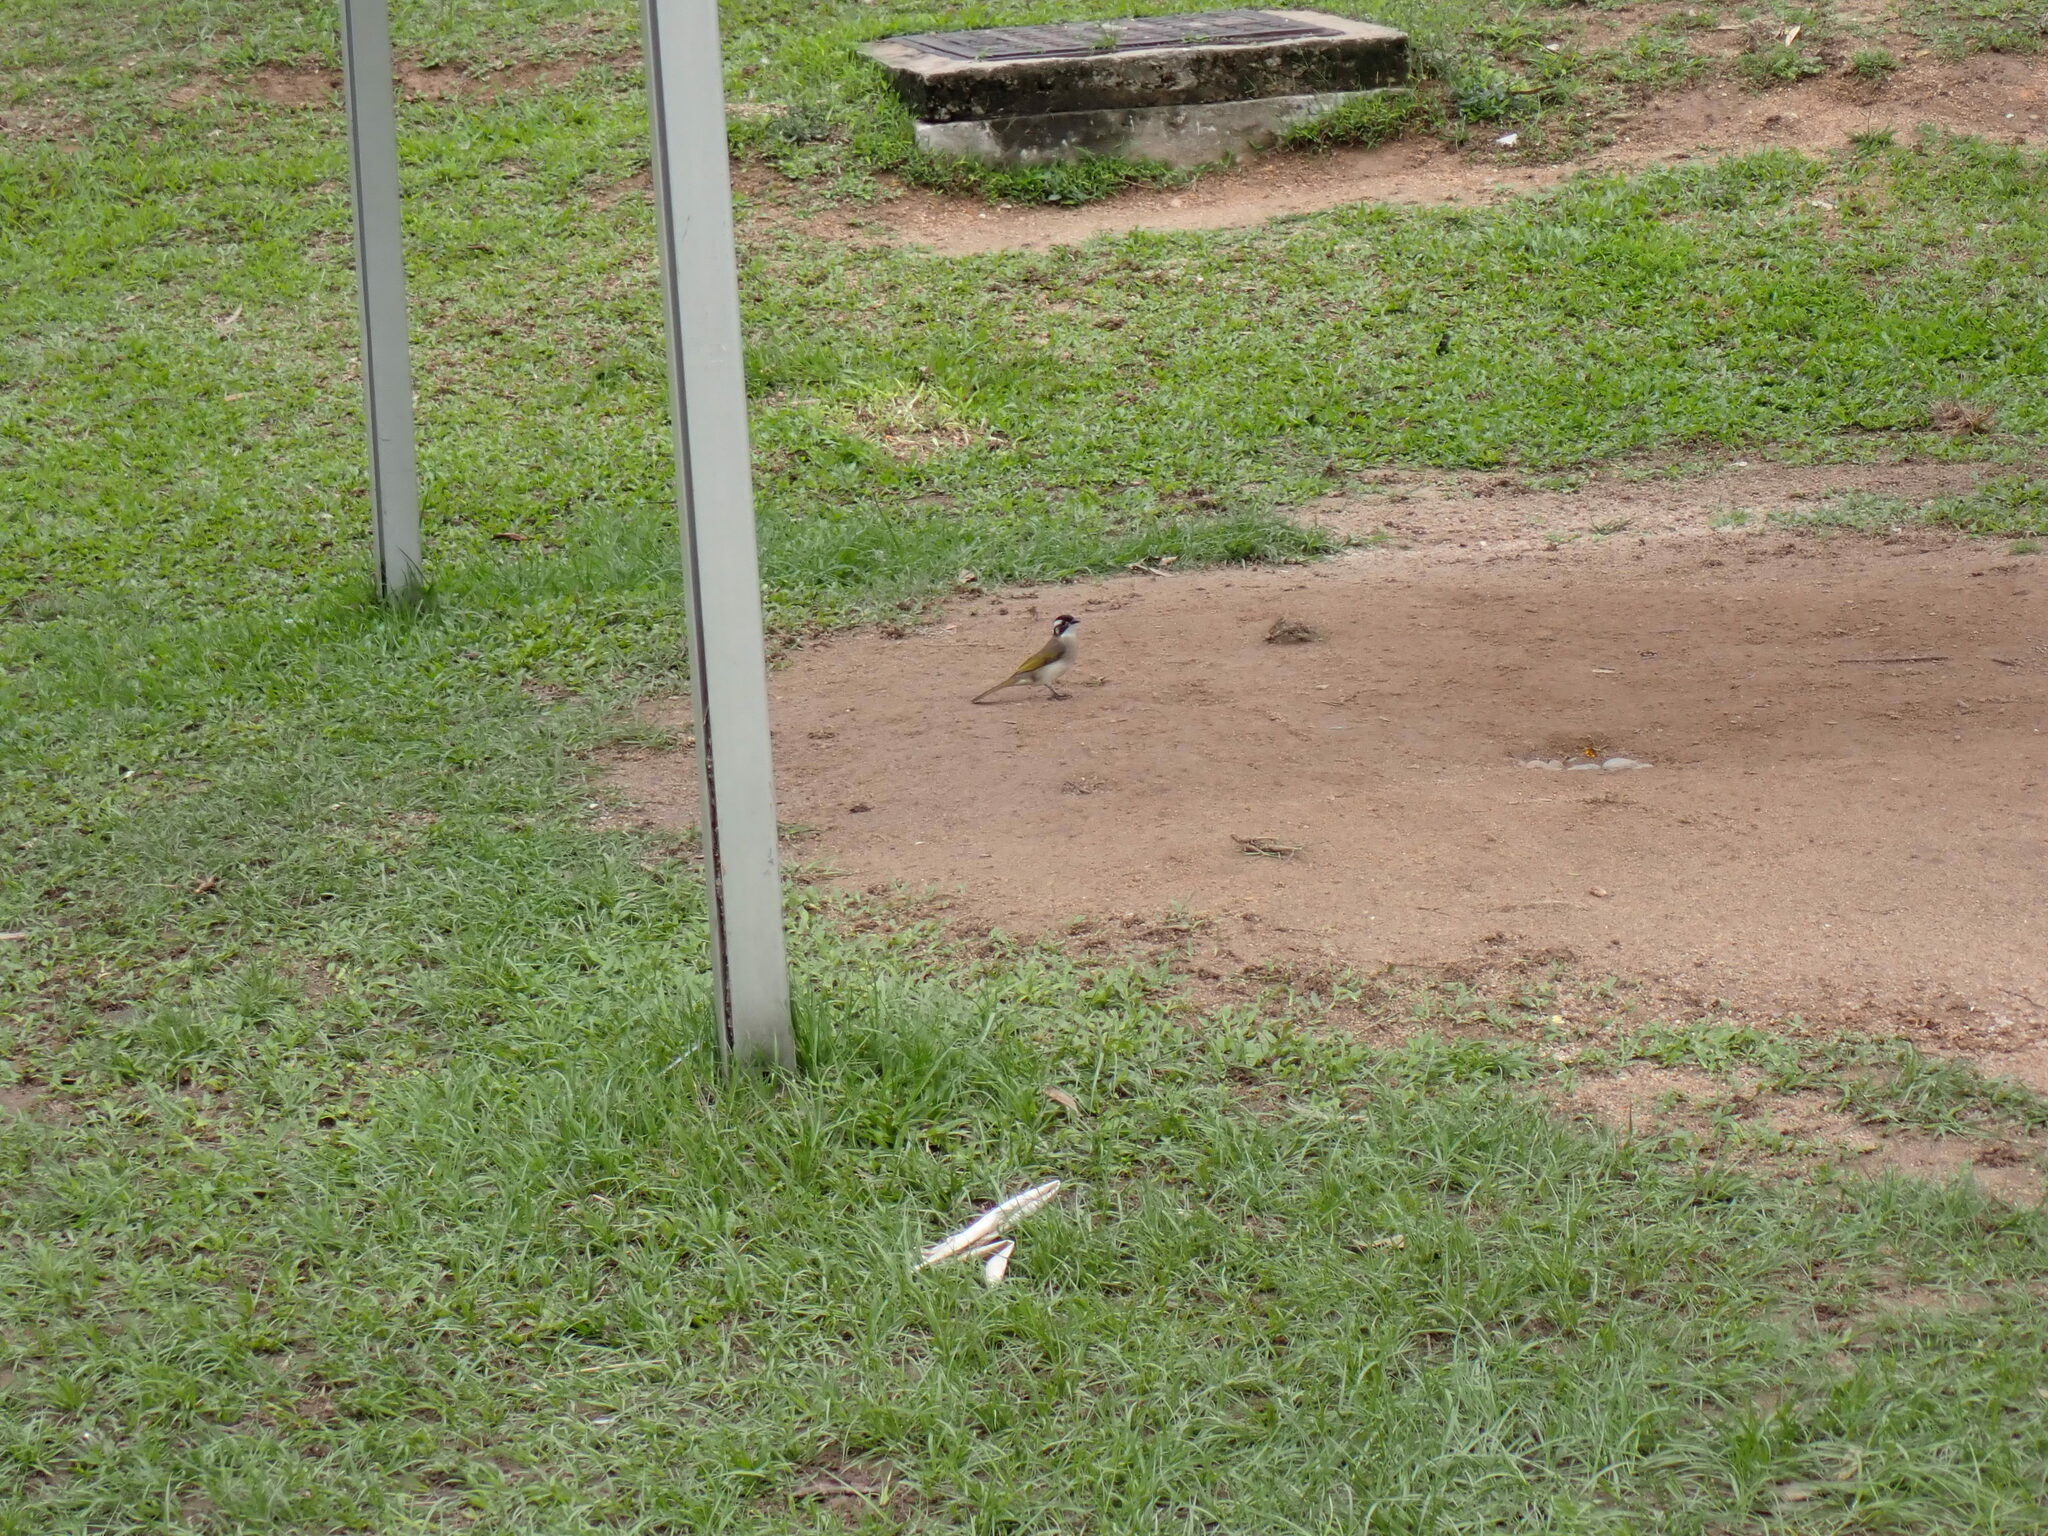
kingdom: Animalia
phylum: Chordata
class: Aves
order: Passeriformes
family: Pycnonotidae
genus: Pycnonotus
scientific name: Pycnonotus sinensis
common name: Light-vented bulbul
